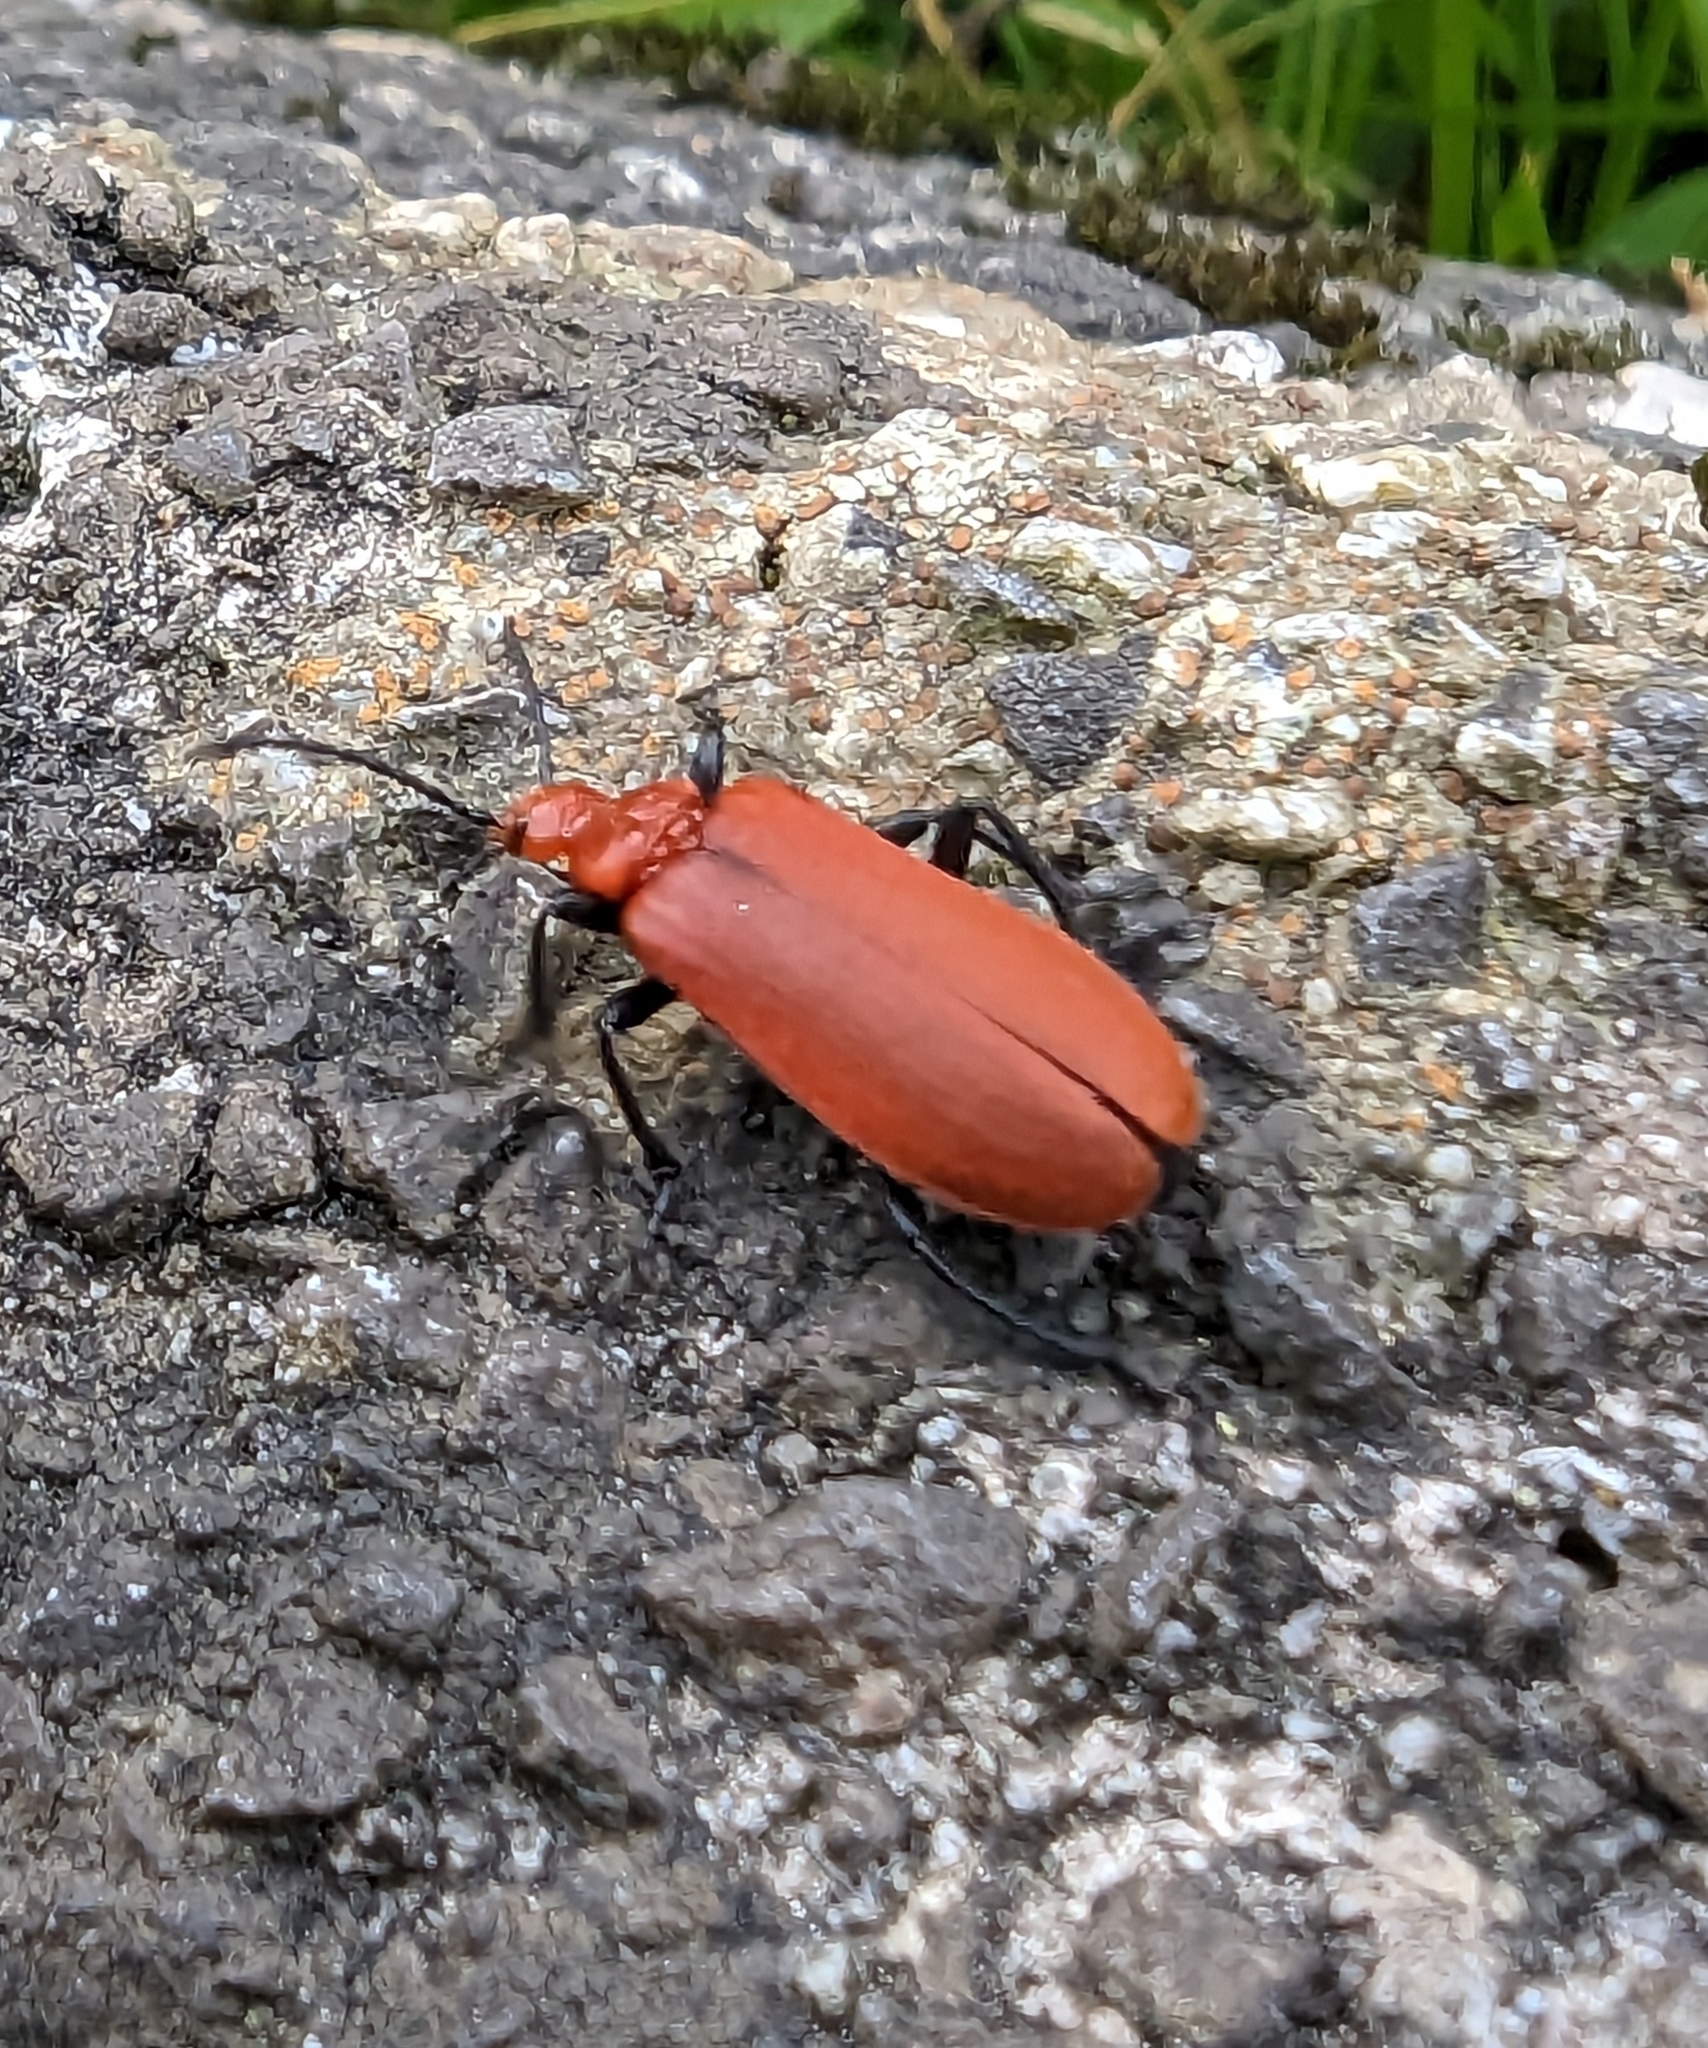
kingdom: Animalia
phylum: Arthropoda
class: Insecta
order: Coleoptera
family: Pyrochroidae
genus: Pyrochroa
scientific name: Pyrochroa serraticornis
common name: Red-headed cardinal beetle
